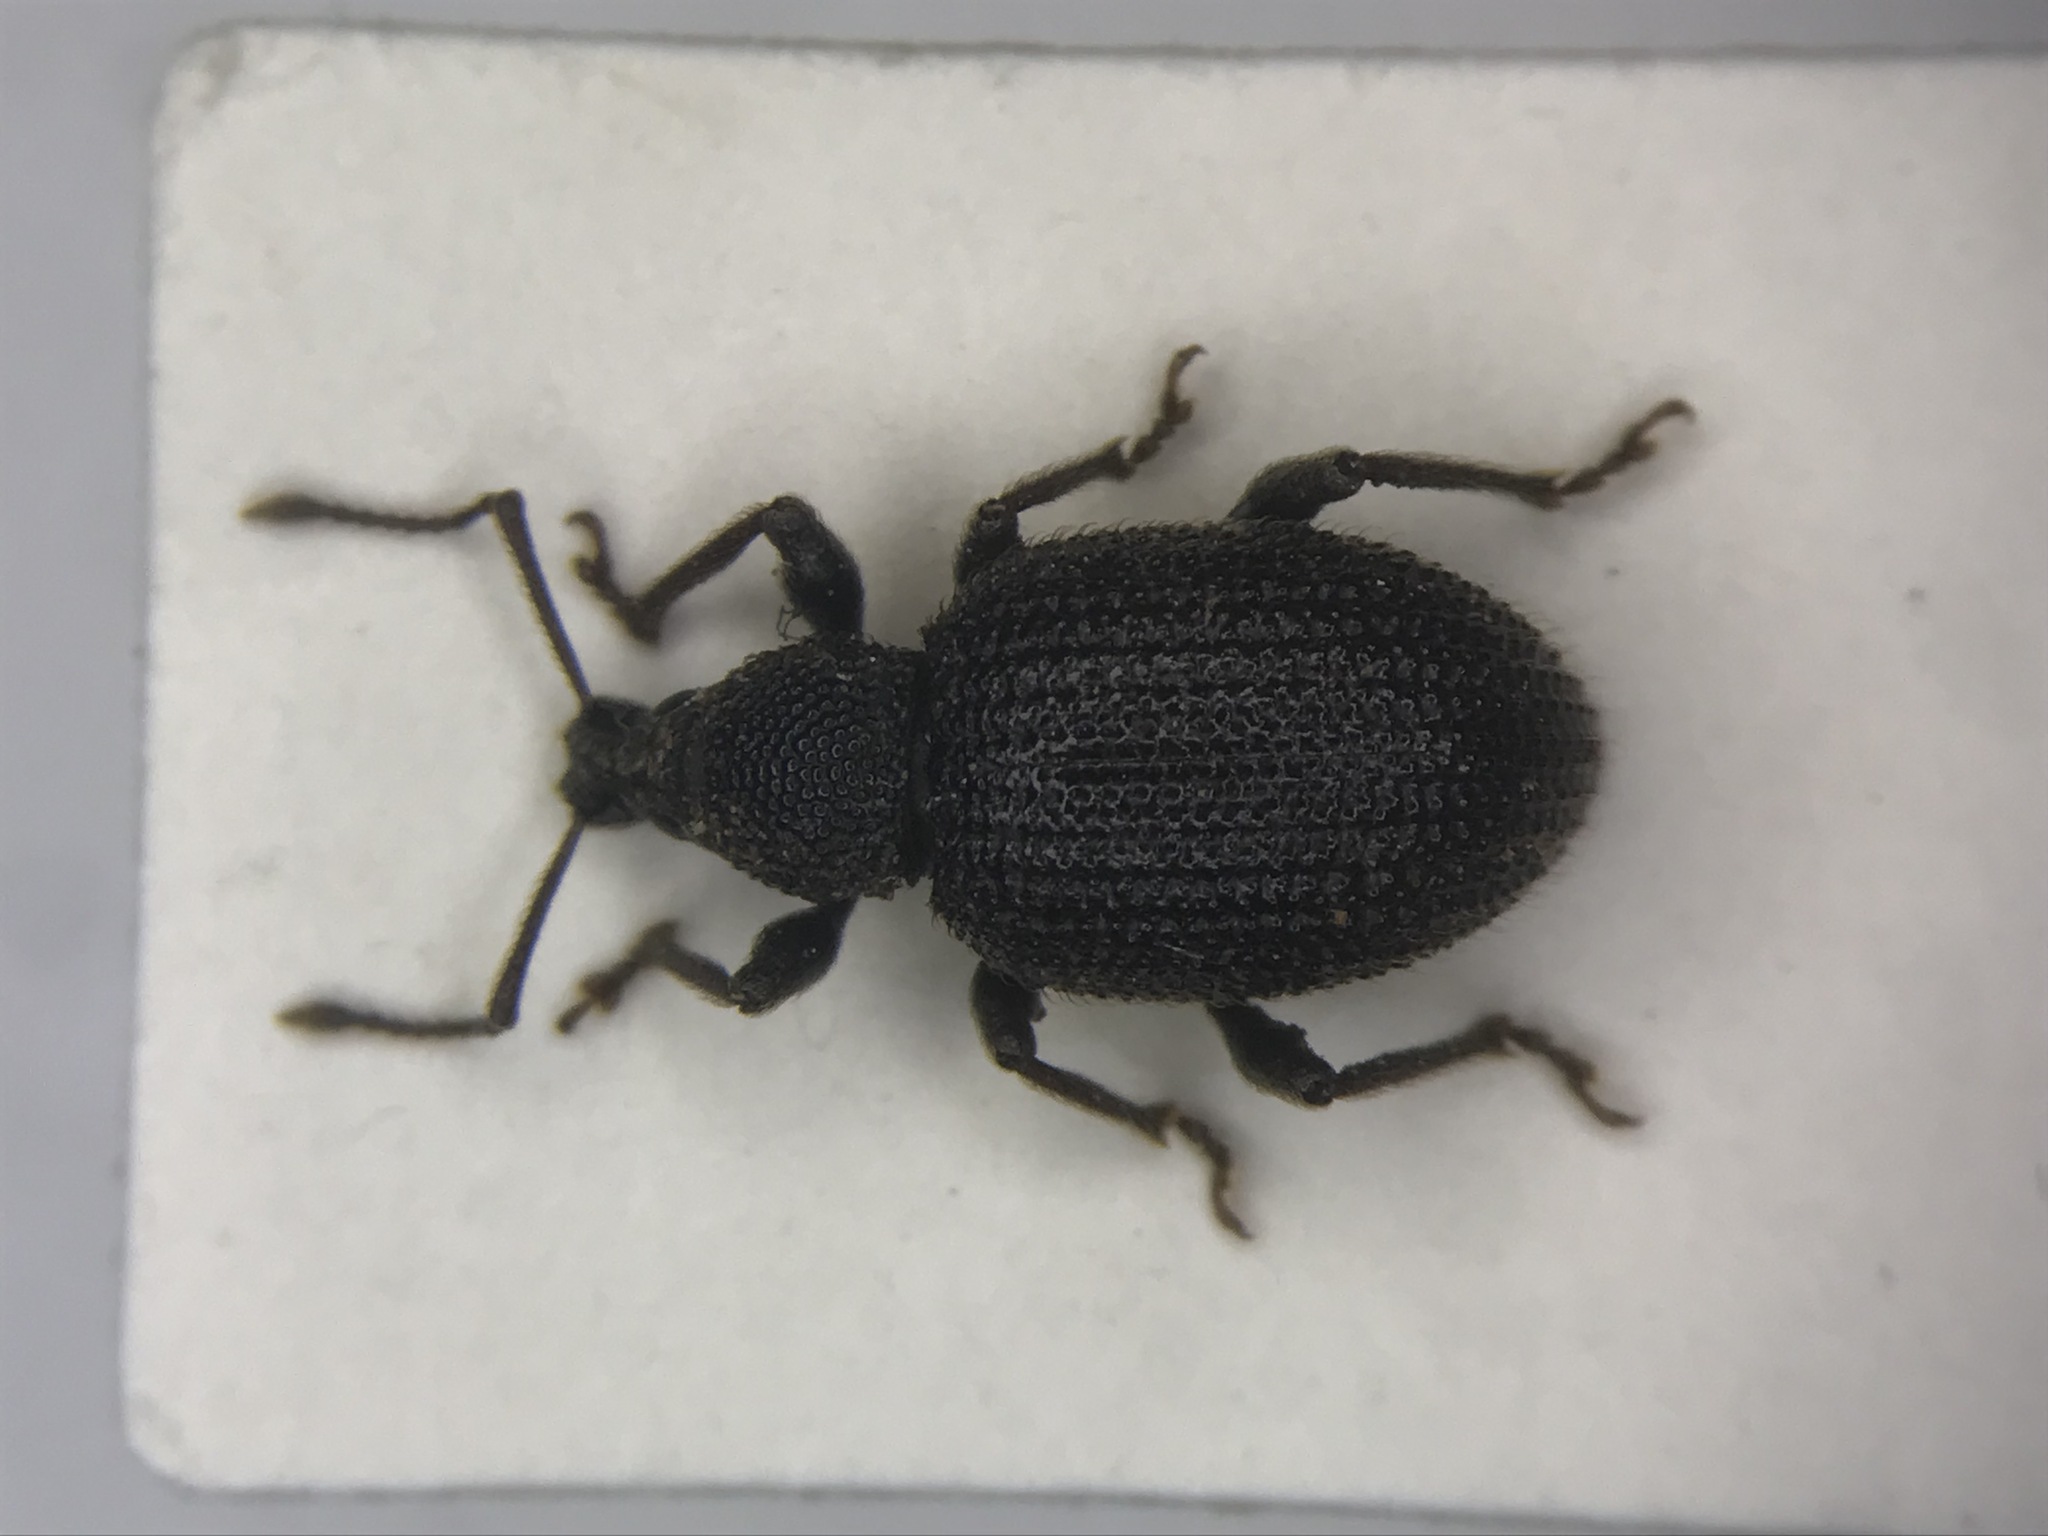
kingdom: Animalia
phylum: Arthropoda
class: Insecta
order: Coleoptera
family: Curculionidae
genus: Otiorhynchus
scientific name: Otiorhynchus rugosostriatus
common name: Weevil
